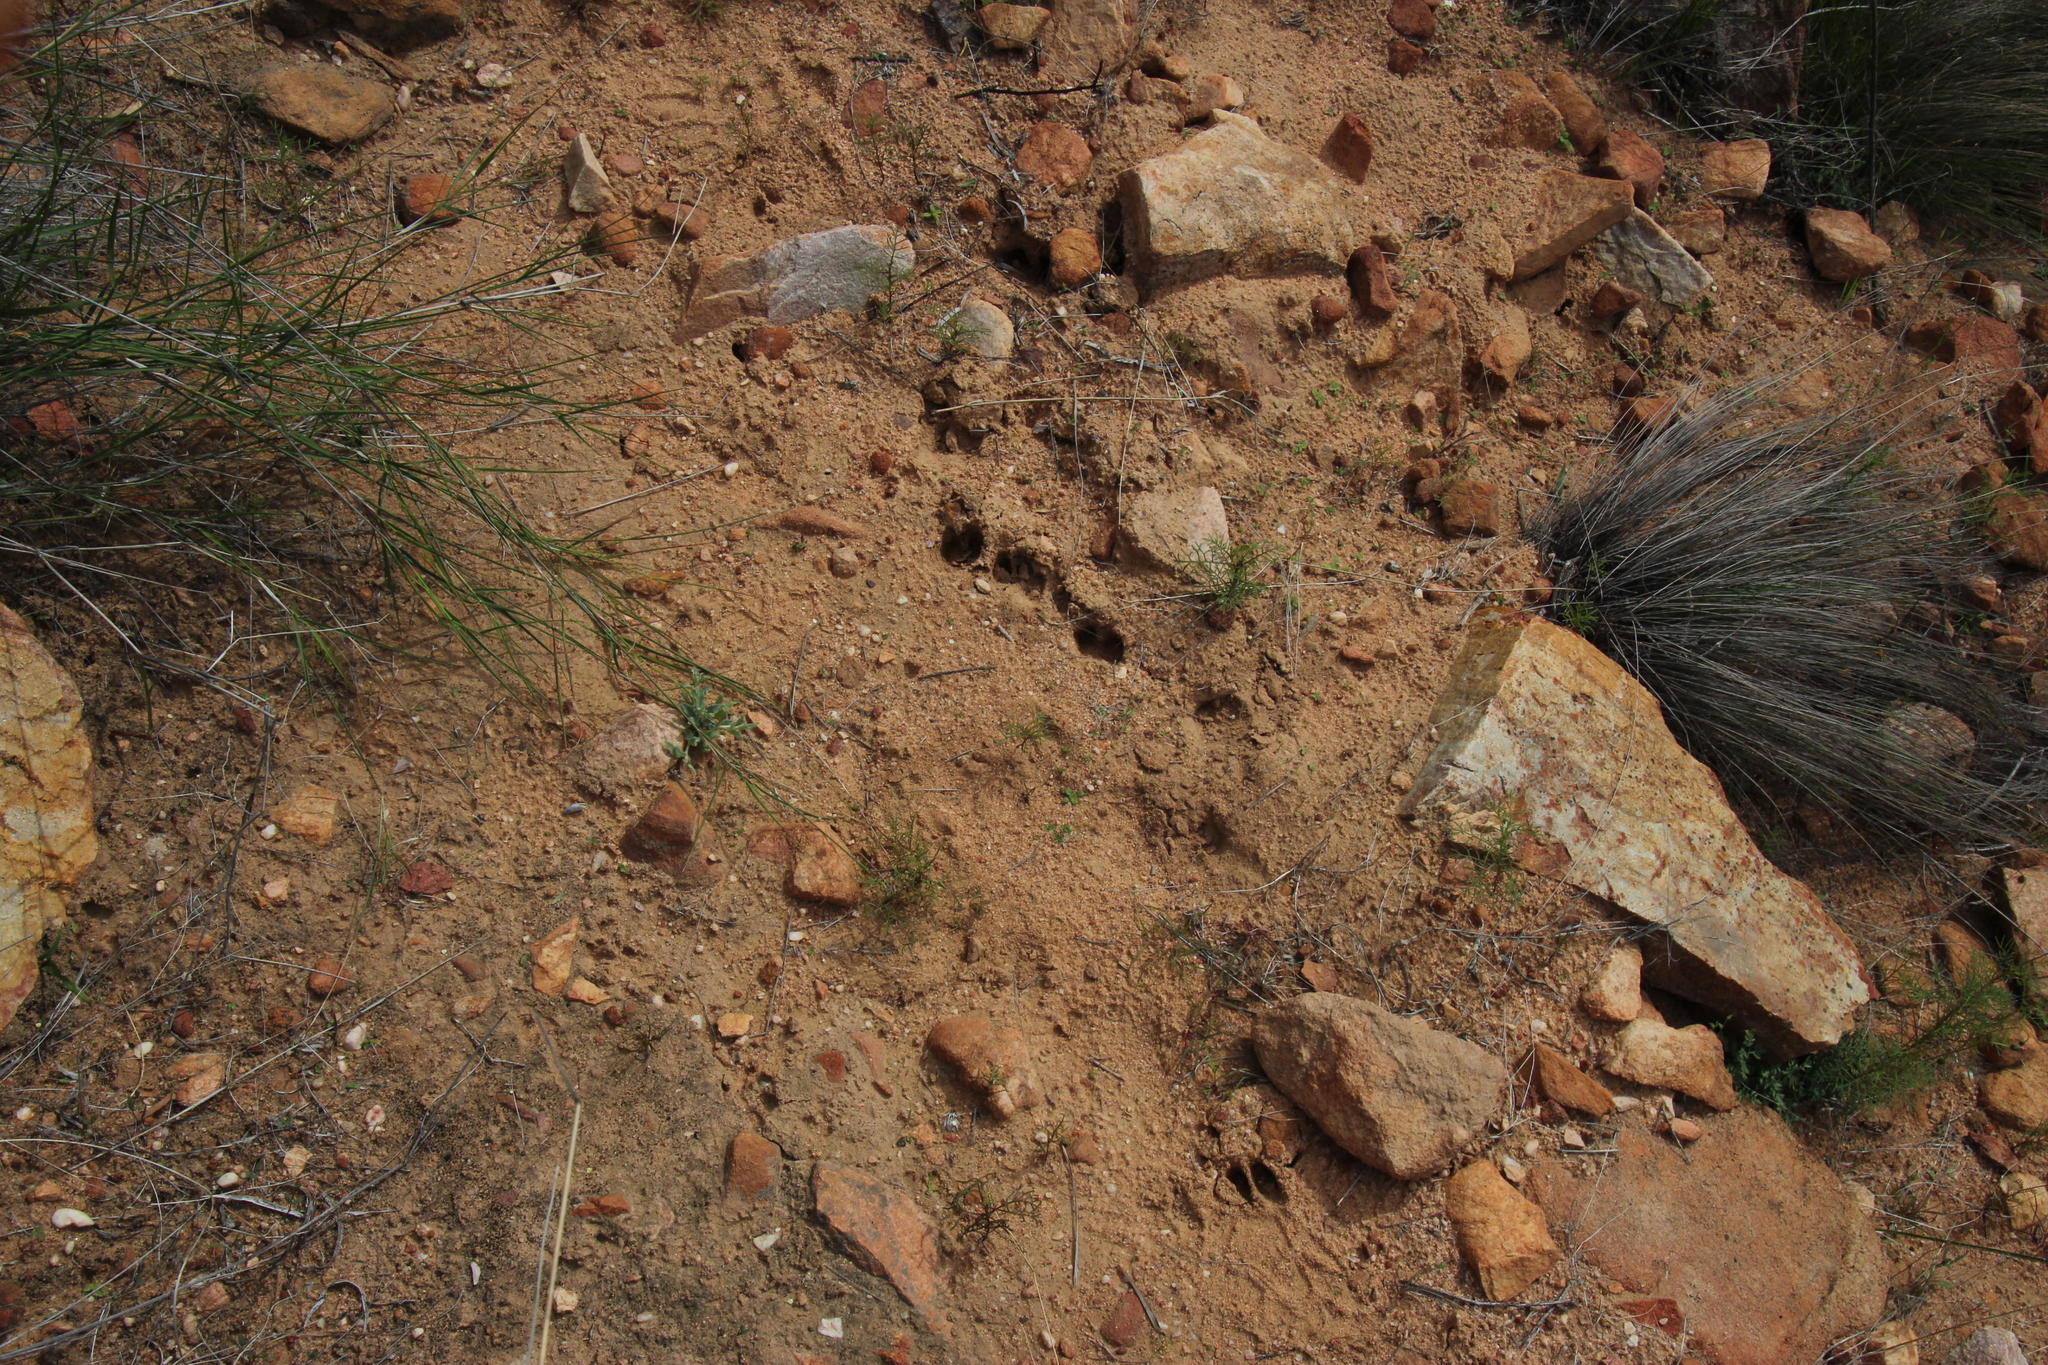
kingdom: Animalia
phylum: Chordata
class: Mammalia
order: Artiodactyla
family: Bovidae
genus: Oreotragus
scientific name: Oreotragus oreotragus
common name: Klipspringer
